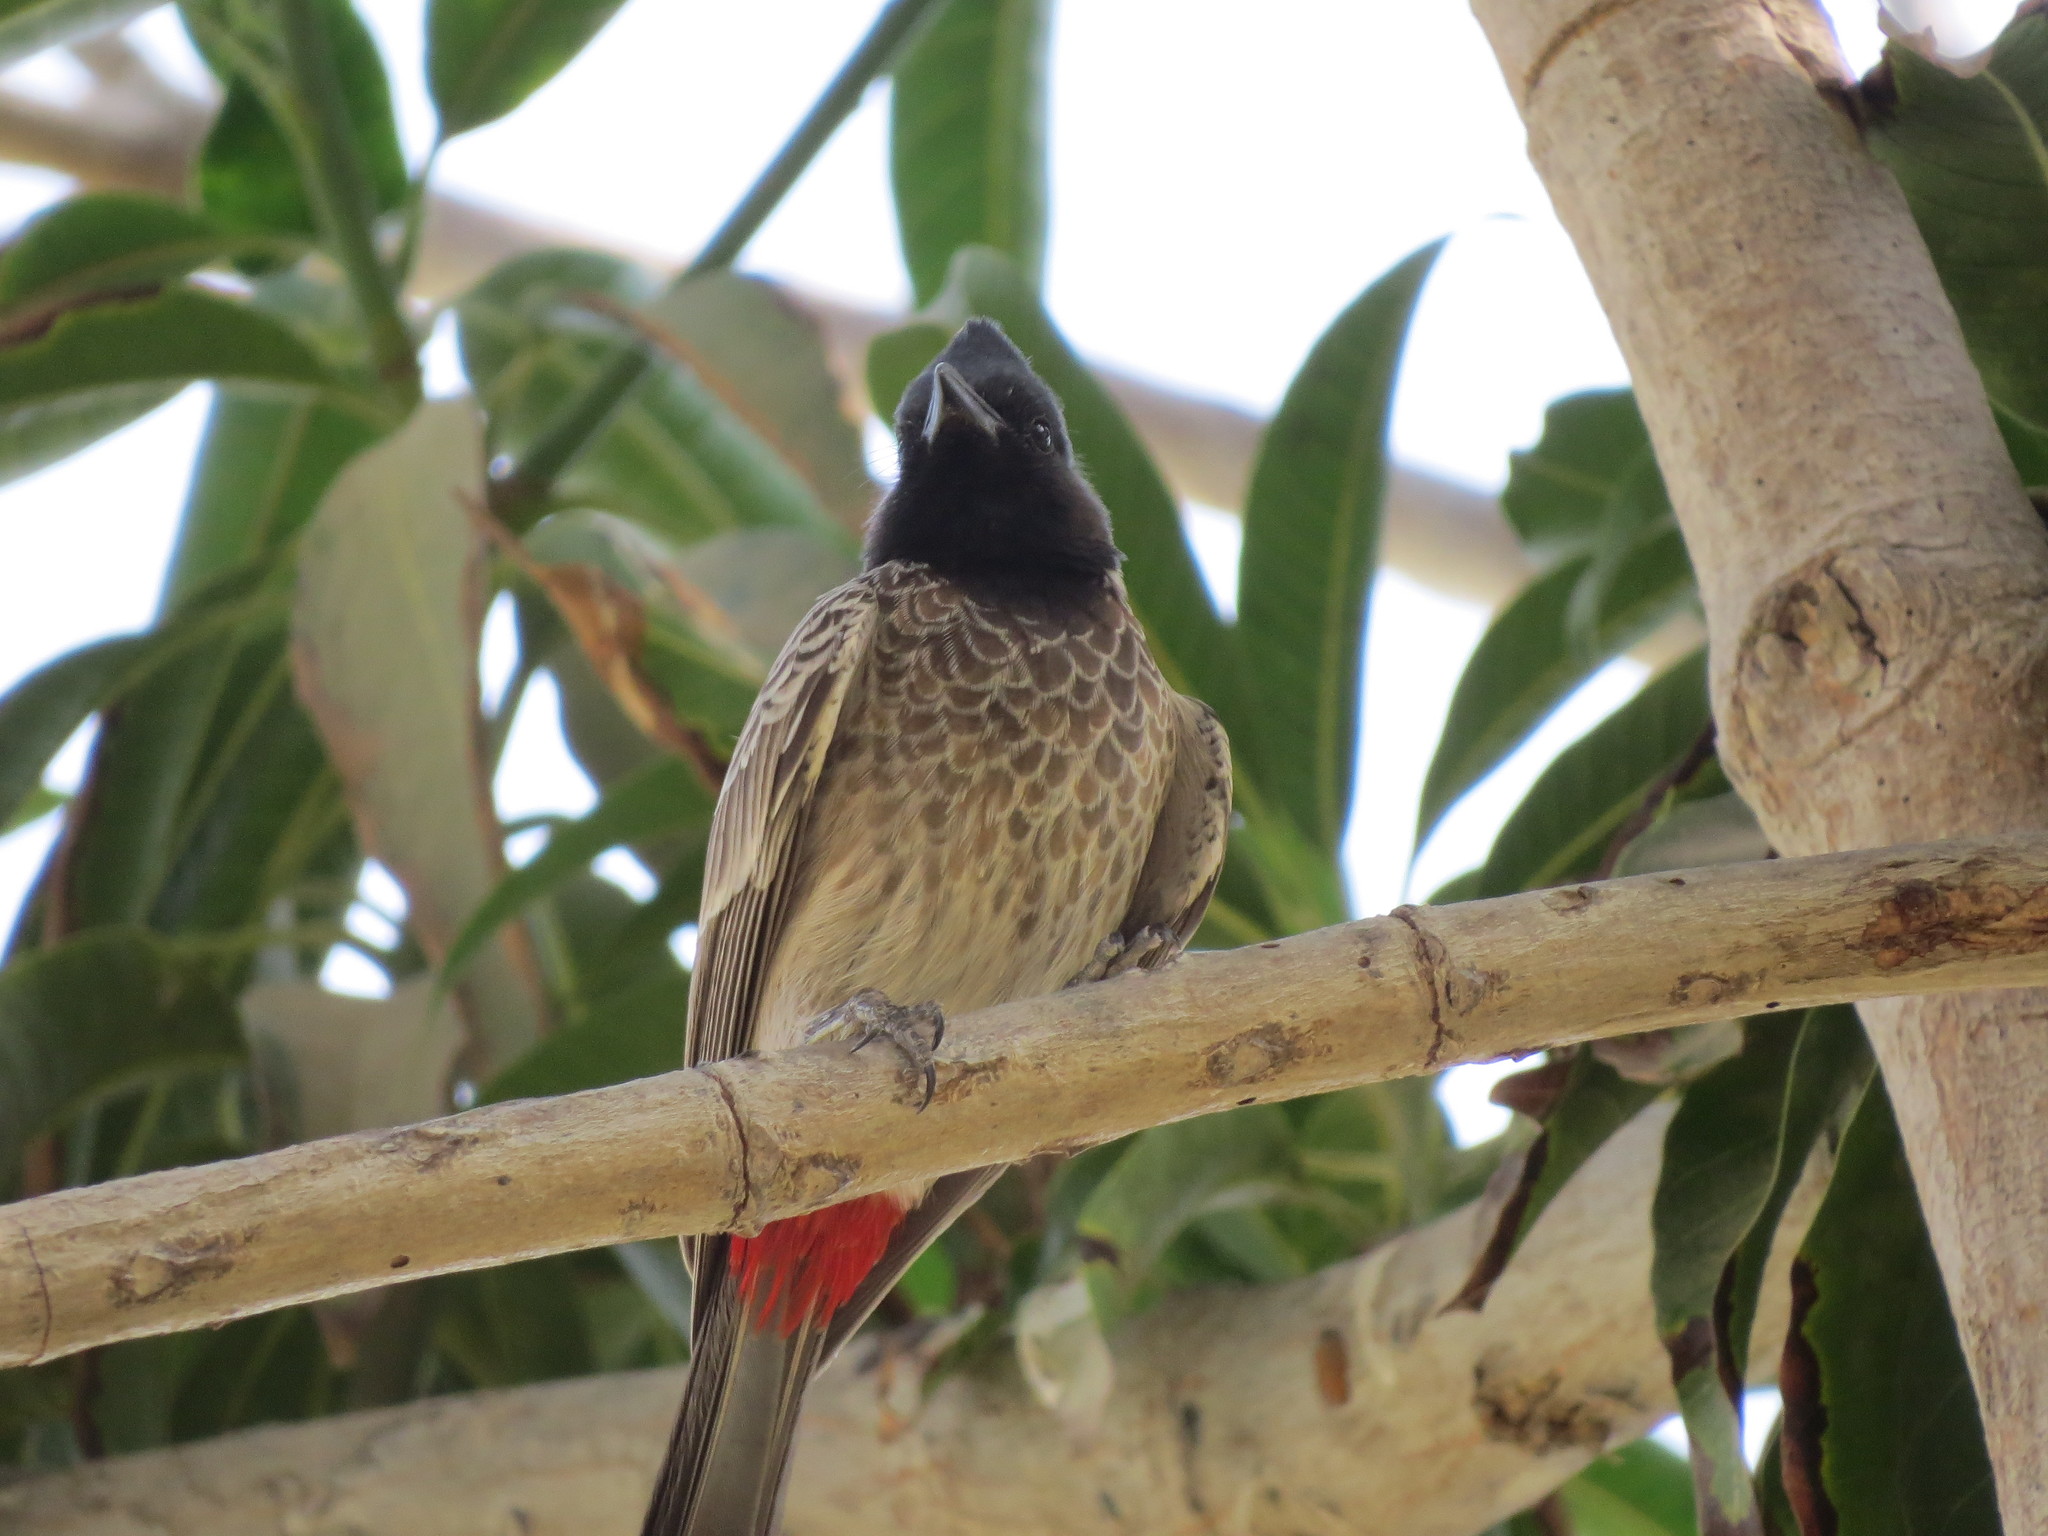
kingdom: Animalia
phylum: Chordata
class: Aves
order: Passeriformes
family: Pycnonotidae
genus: Pycnonotus
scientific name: Pycnonotus cafer
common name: Red-vented bulbul
